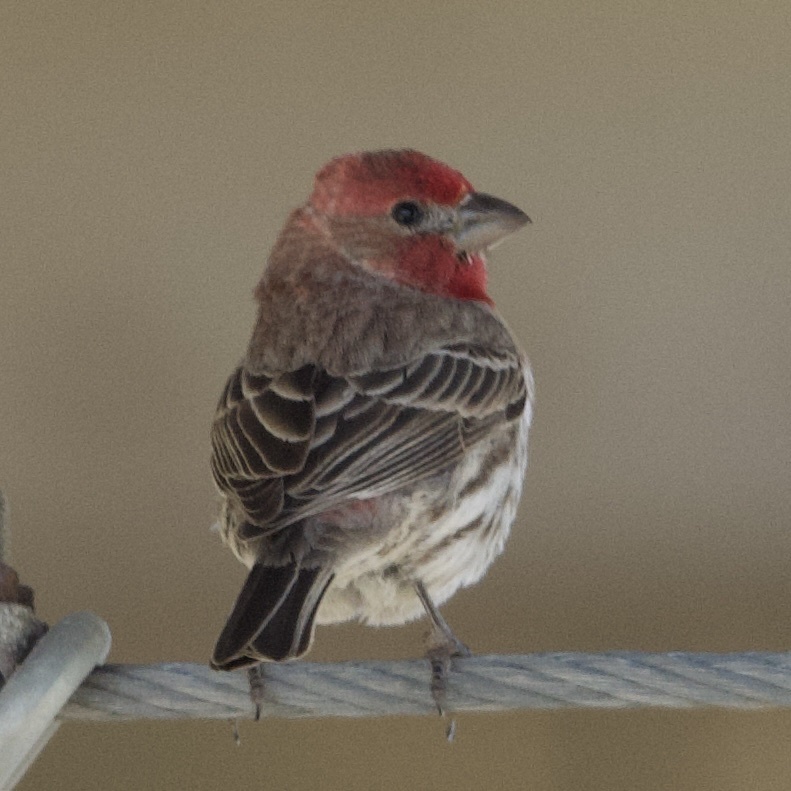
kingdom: Animalia
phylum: Chordata
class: Aves
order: Passeriformes
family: Fringillidae
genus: Haemorhous
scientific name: Haemorhous mexicanus
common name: House finch
